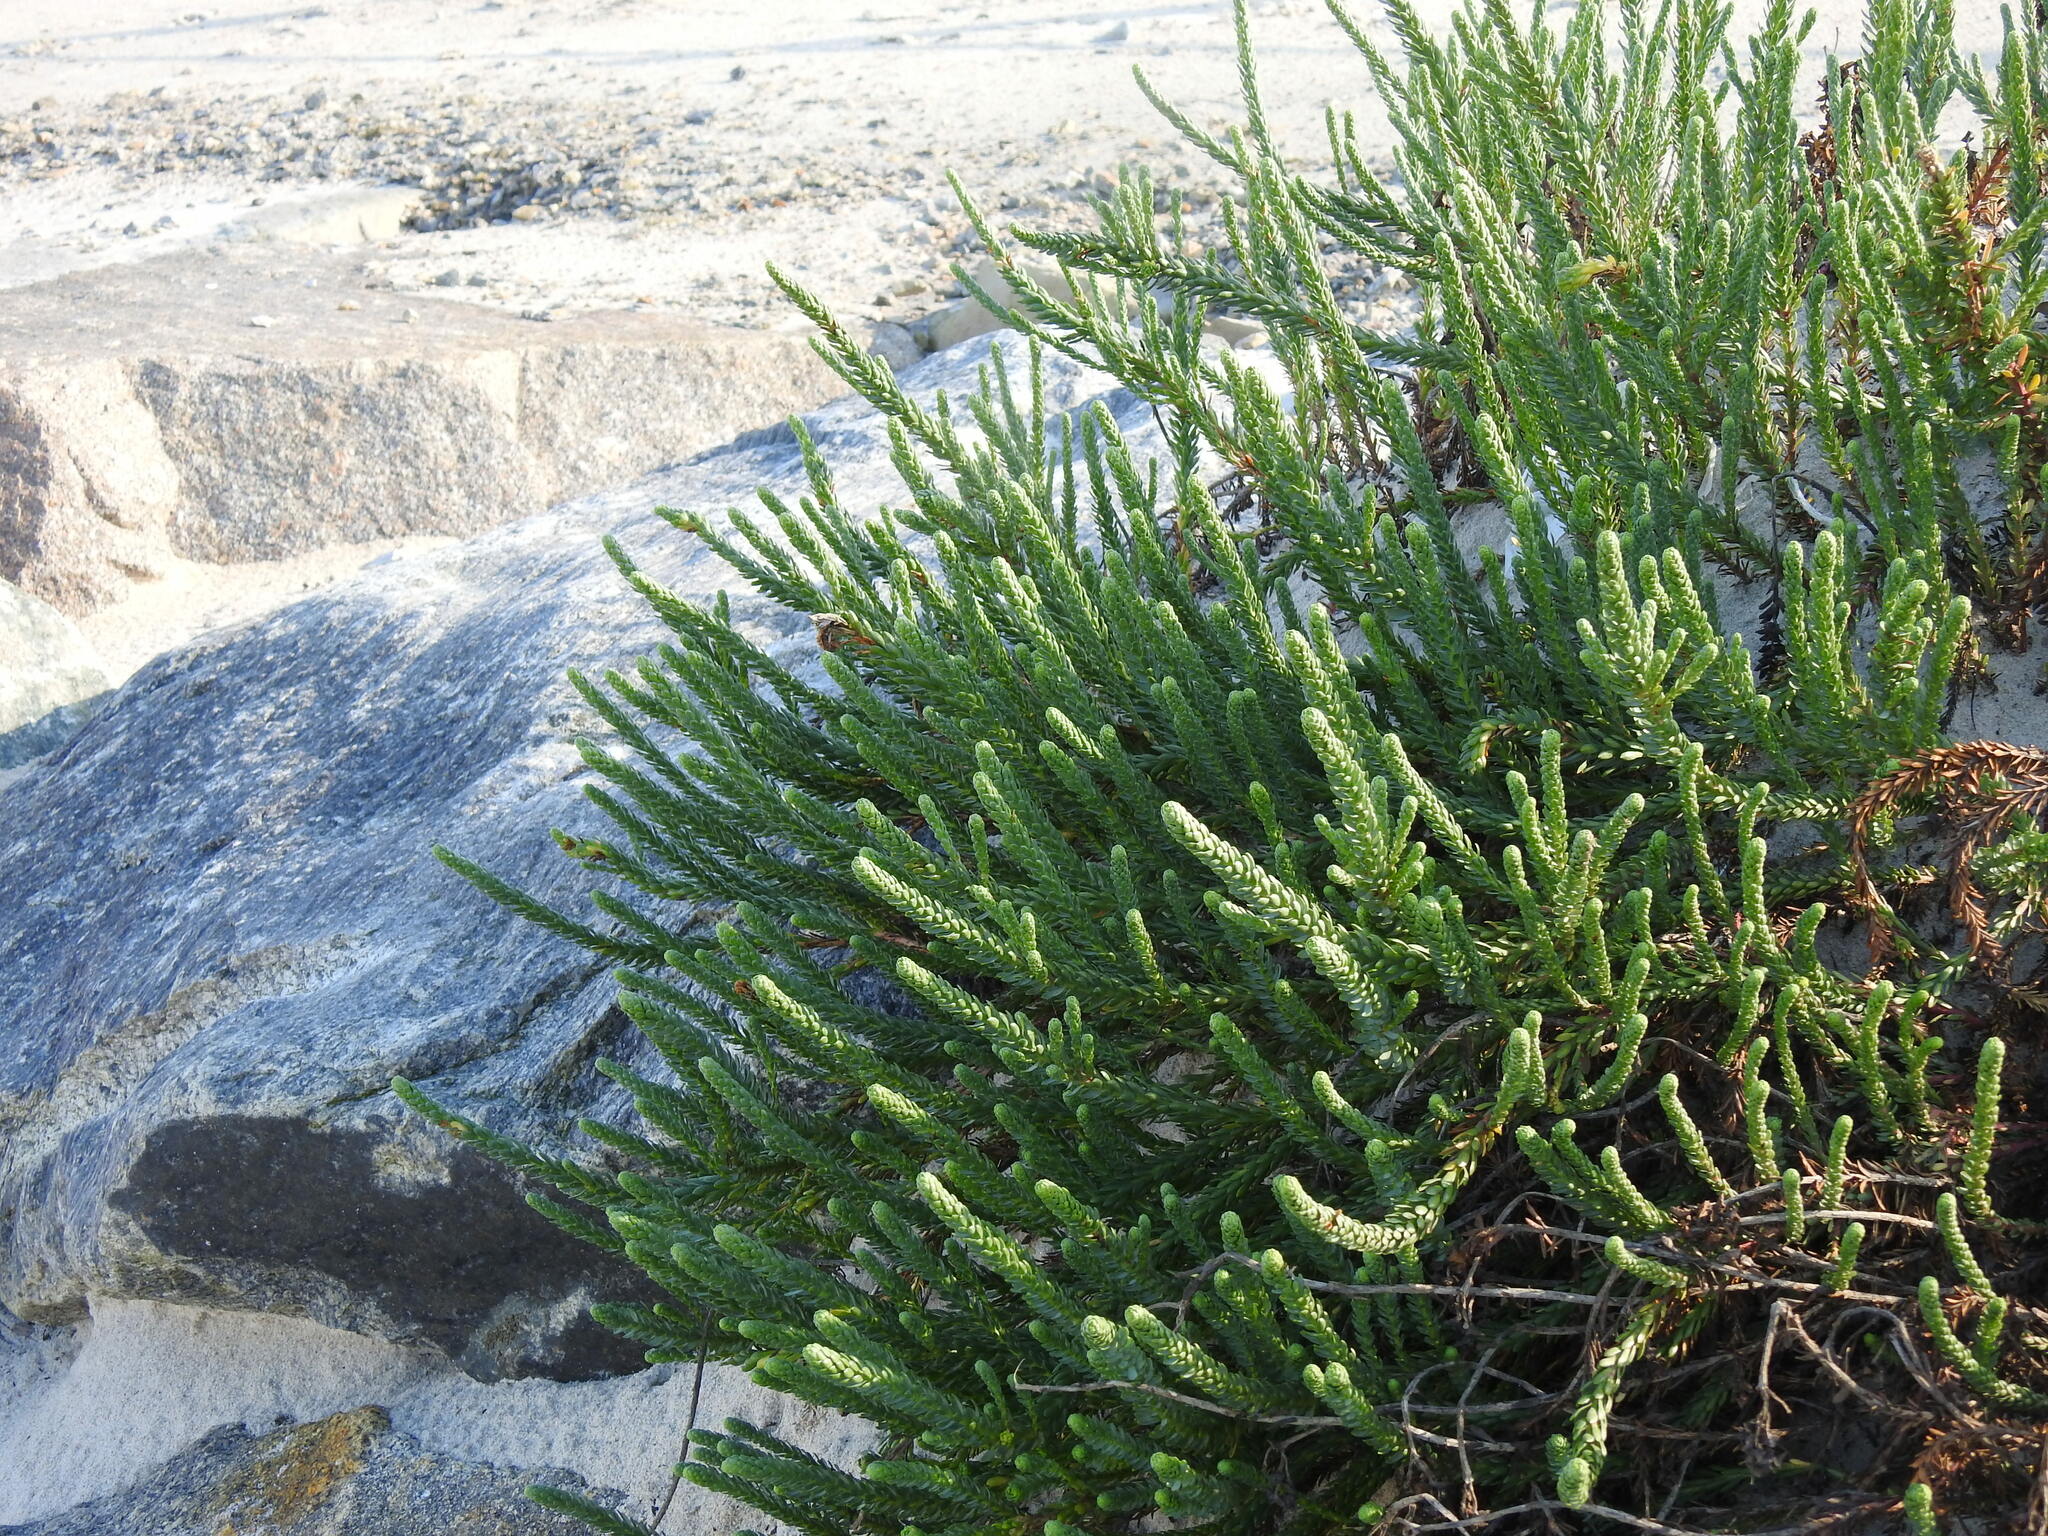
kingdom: Plantae
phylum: Tracheophyta
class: Magnoliopsida
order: Malpighiales
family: Euphorbiaceae
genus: Euphorbia
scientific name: Euphorbia paralias
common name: Sea spurge
